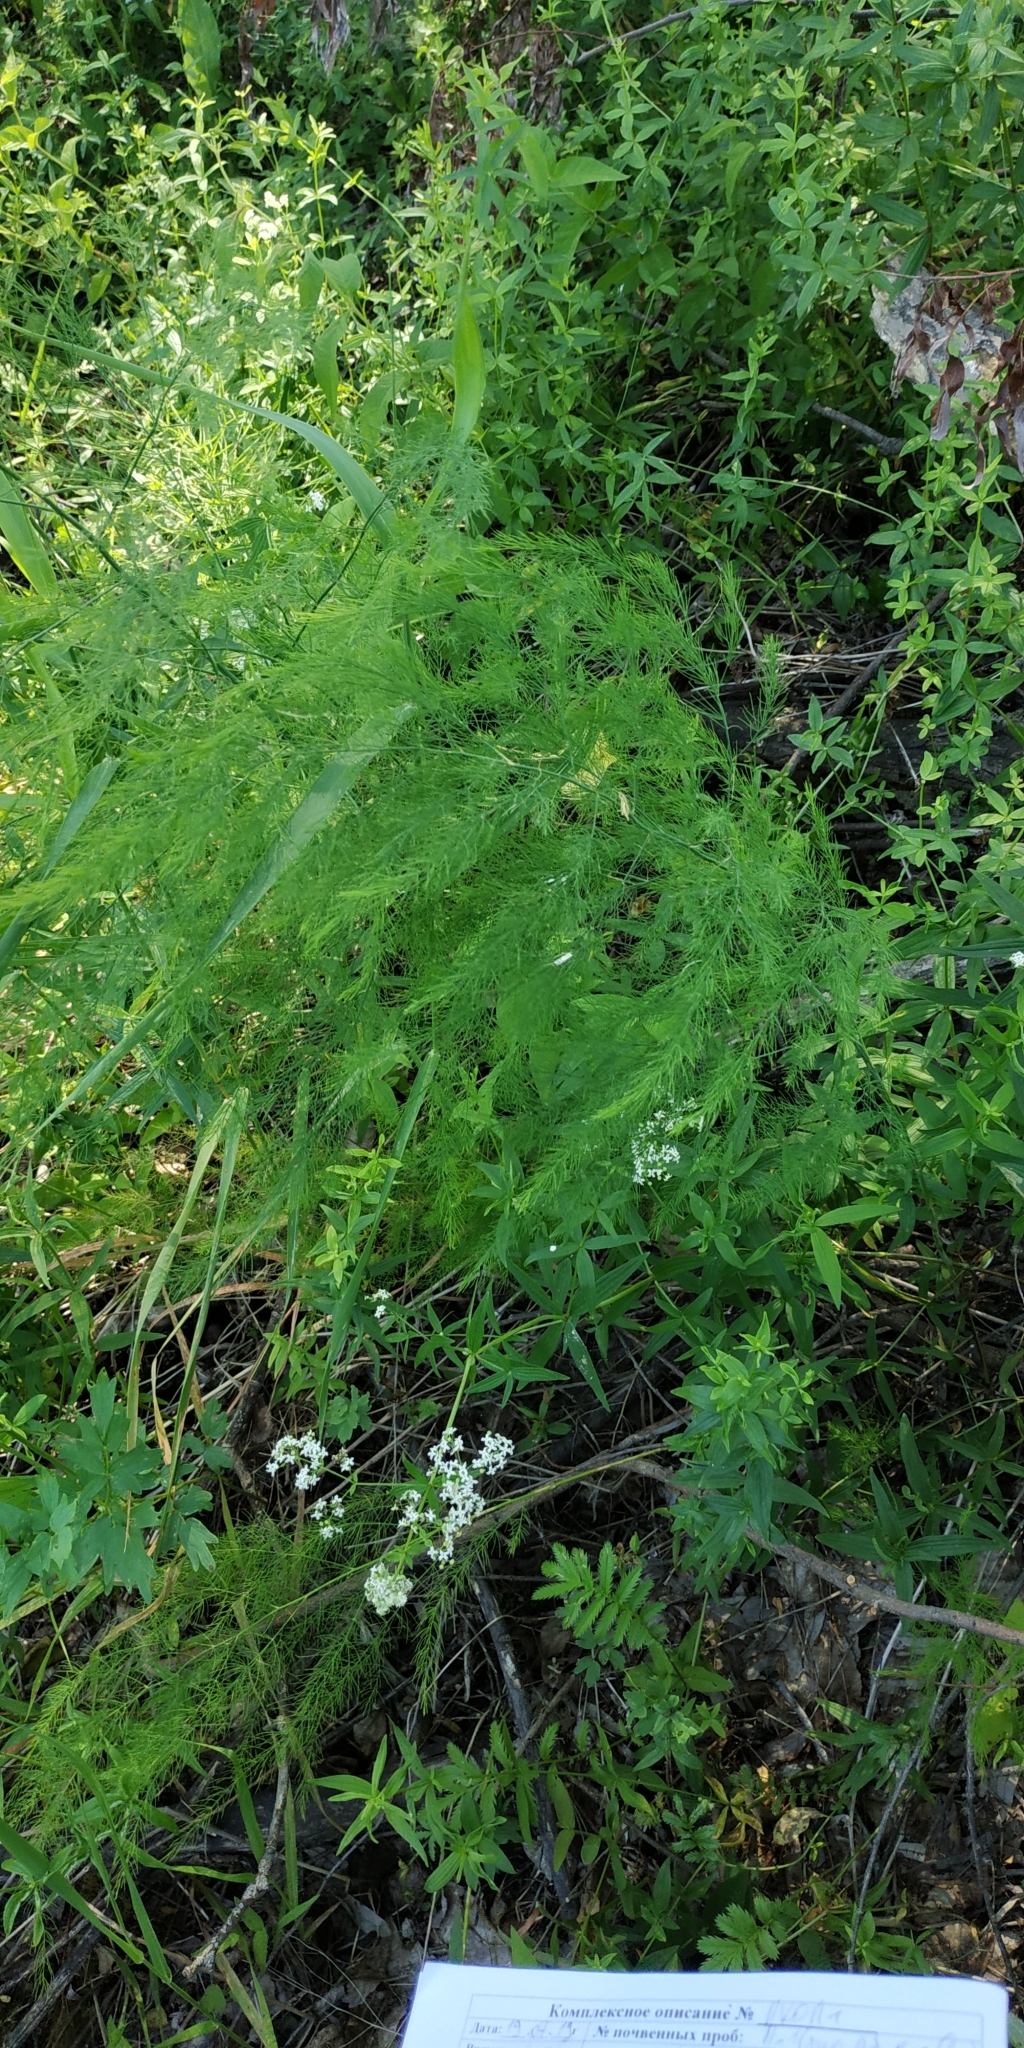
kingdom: Plantae
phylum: Tracheophyta
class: Liliopsida
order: Asparagales
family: Asparagaceae
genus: Asparagus
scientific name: Asparagus officinalis
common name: Garden asparagus
